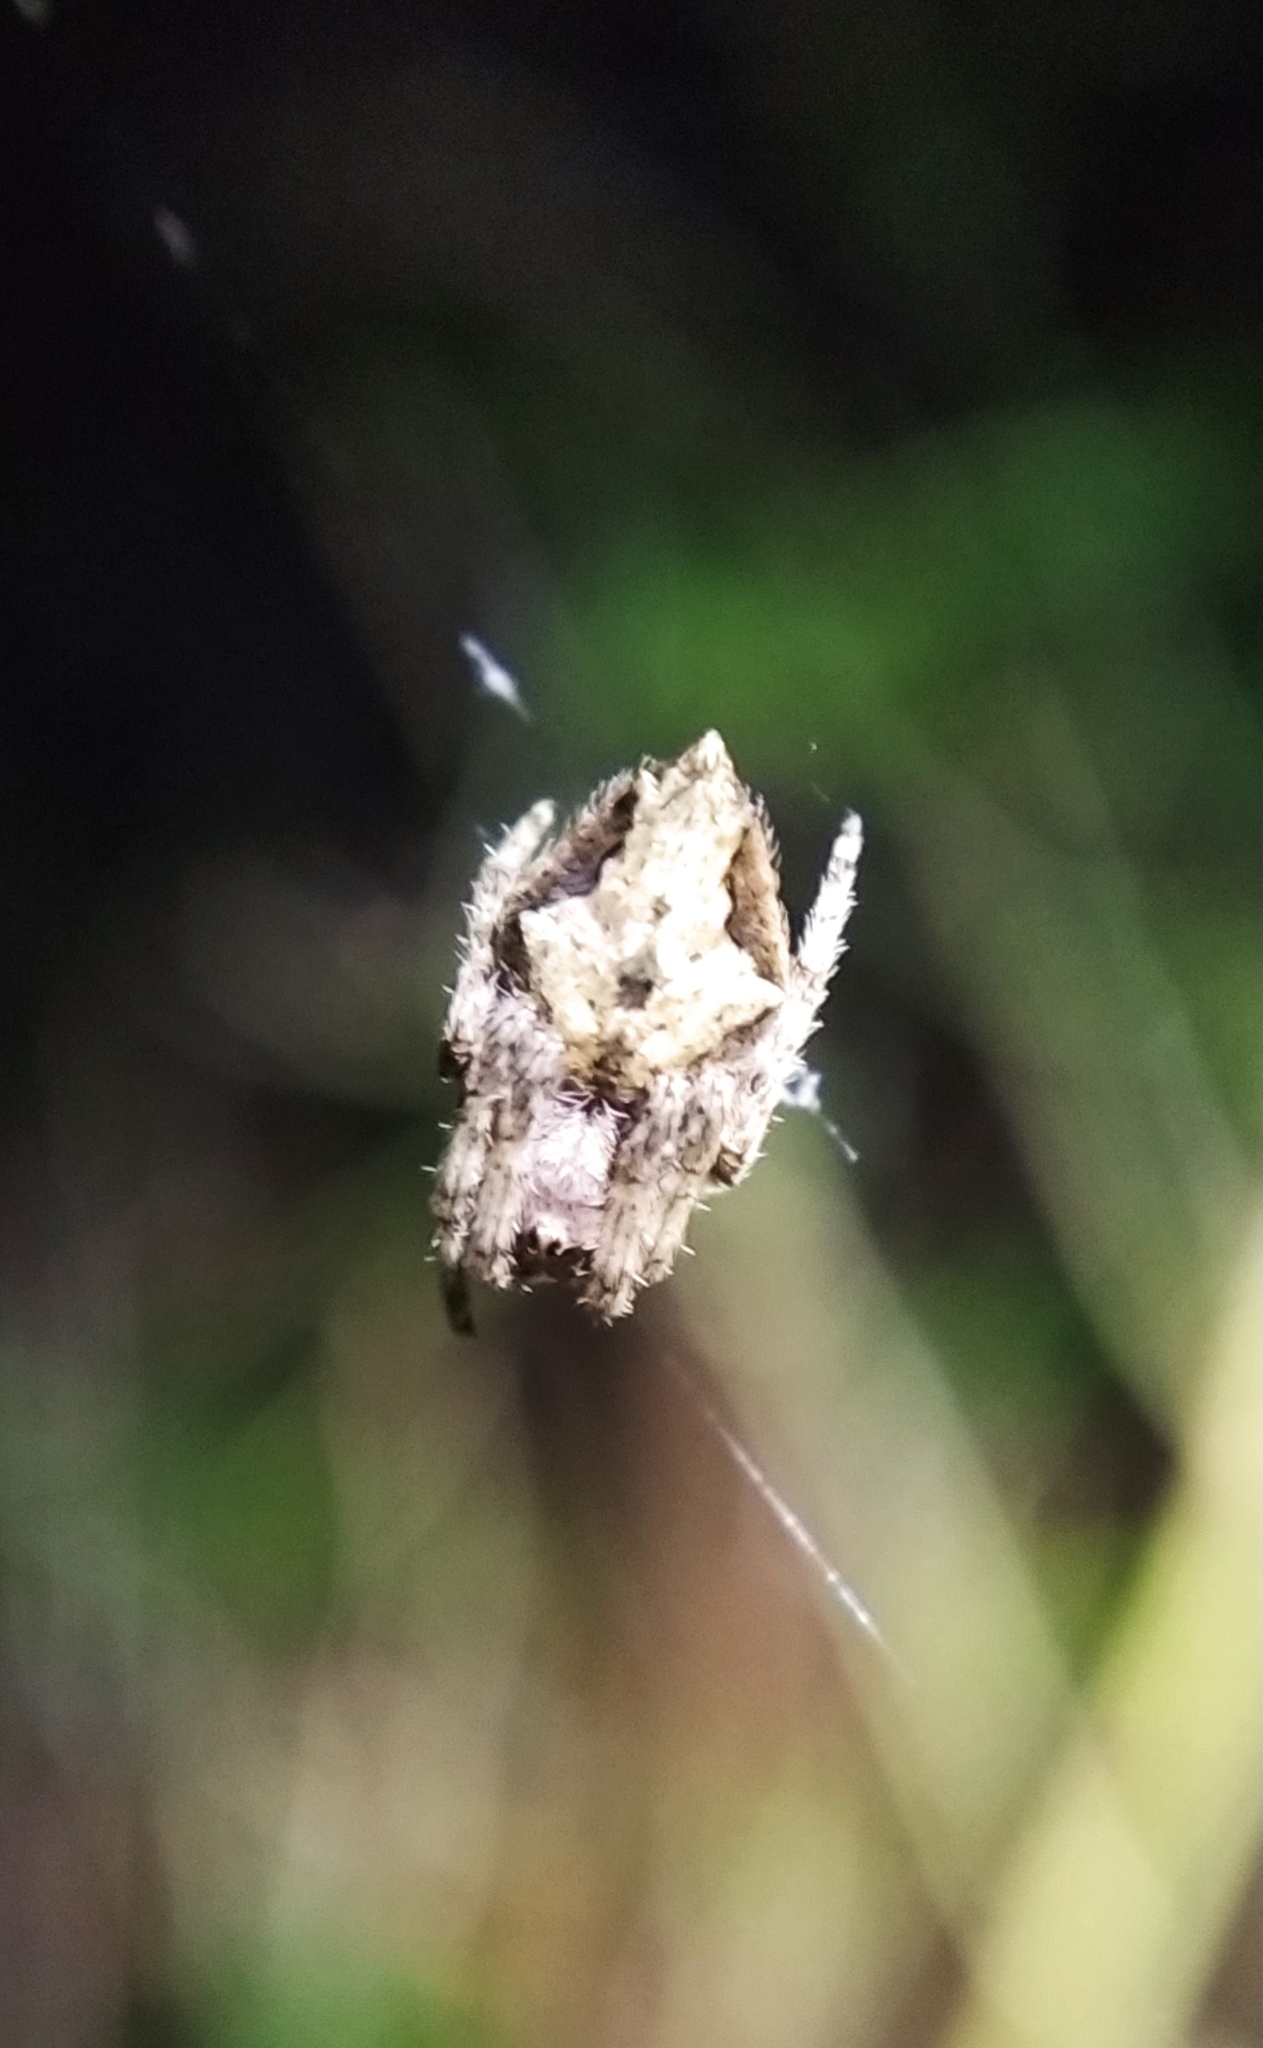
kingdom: Animalia
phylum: Arthropoda
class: Arachnida
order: Araneae
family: Araneidae
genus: Eriophora
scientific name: Eriophora pustulosa
